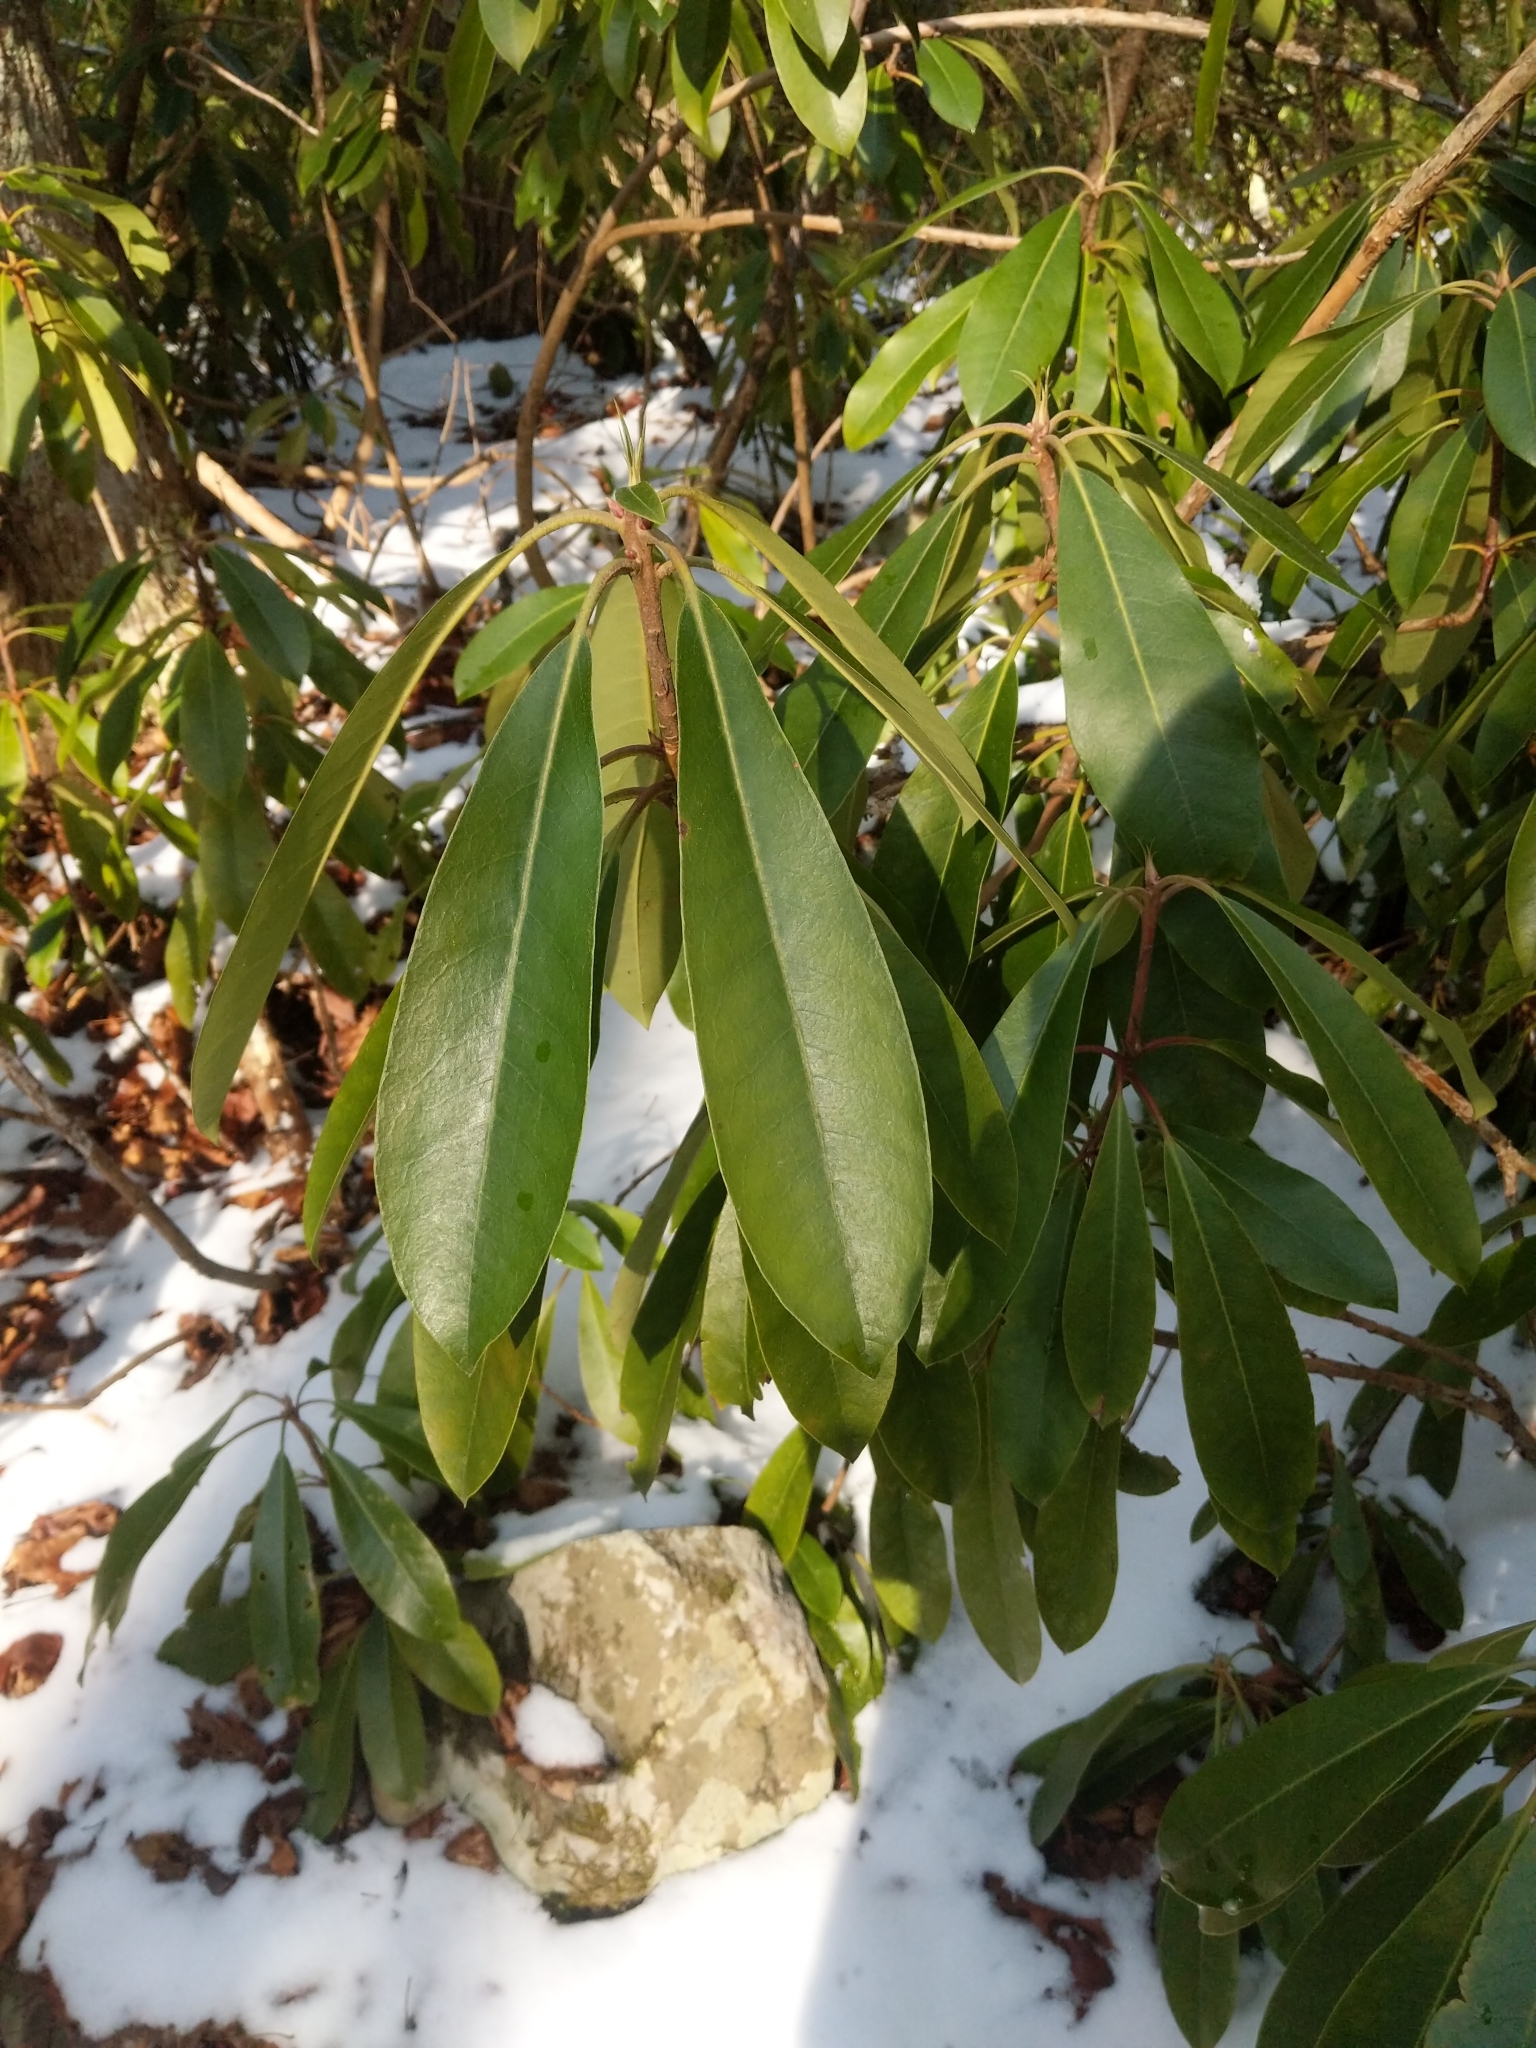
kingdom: Plantae
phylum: Tracheophyta
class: Magnoliopsida
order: Ericales
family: Ericaceae
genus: Rhododendron
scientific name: Rhododendron maximum
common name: Great rhododendron
